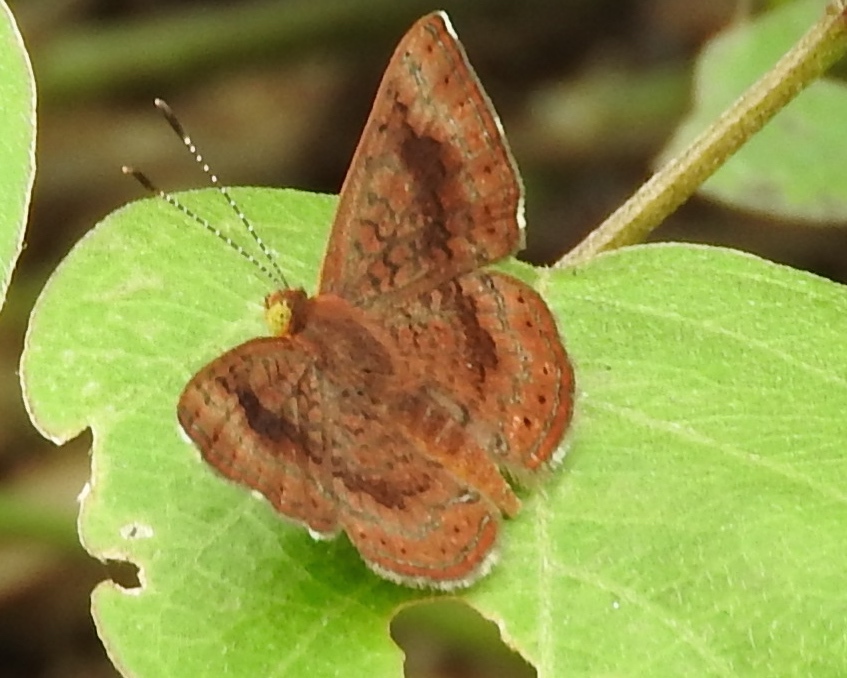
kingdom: Animalia
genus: Calephelis
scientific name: Calephelis
